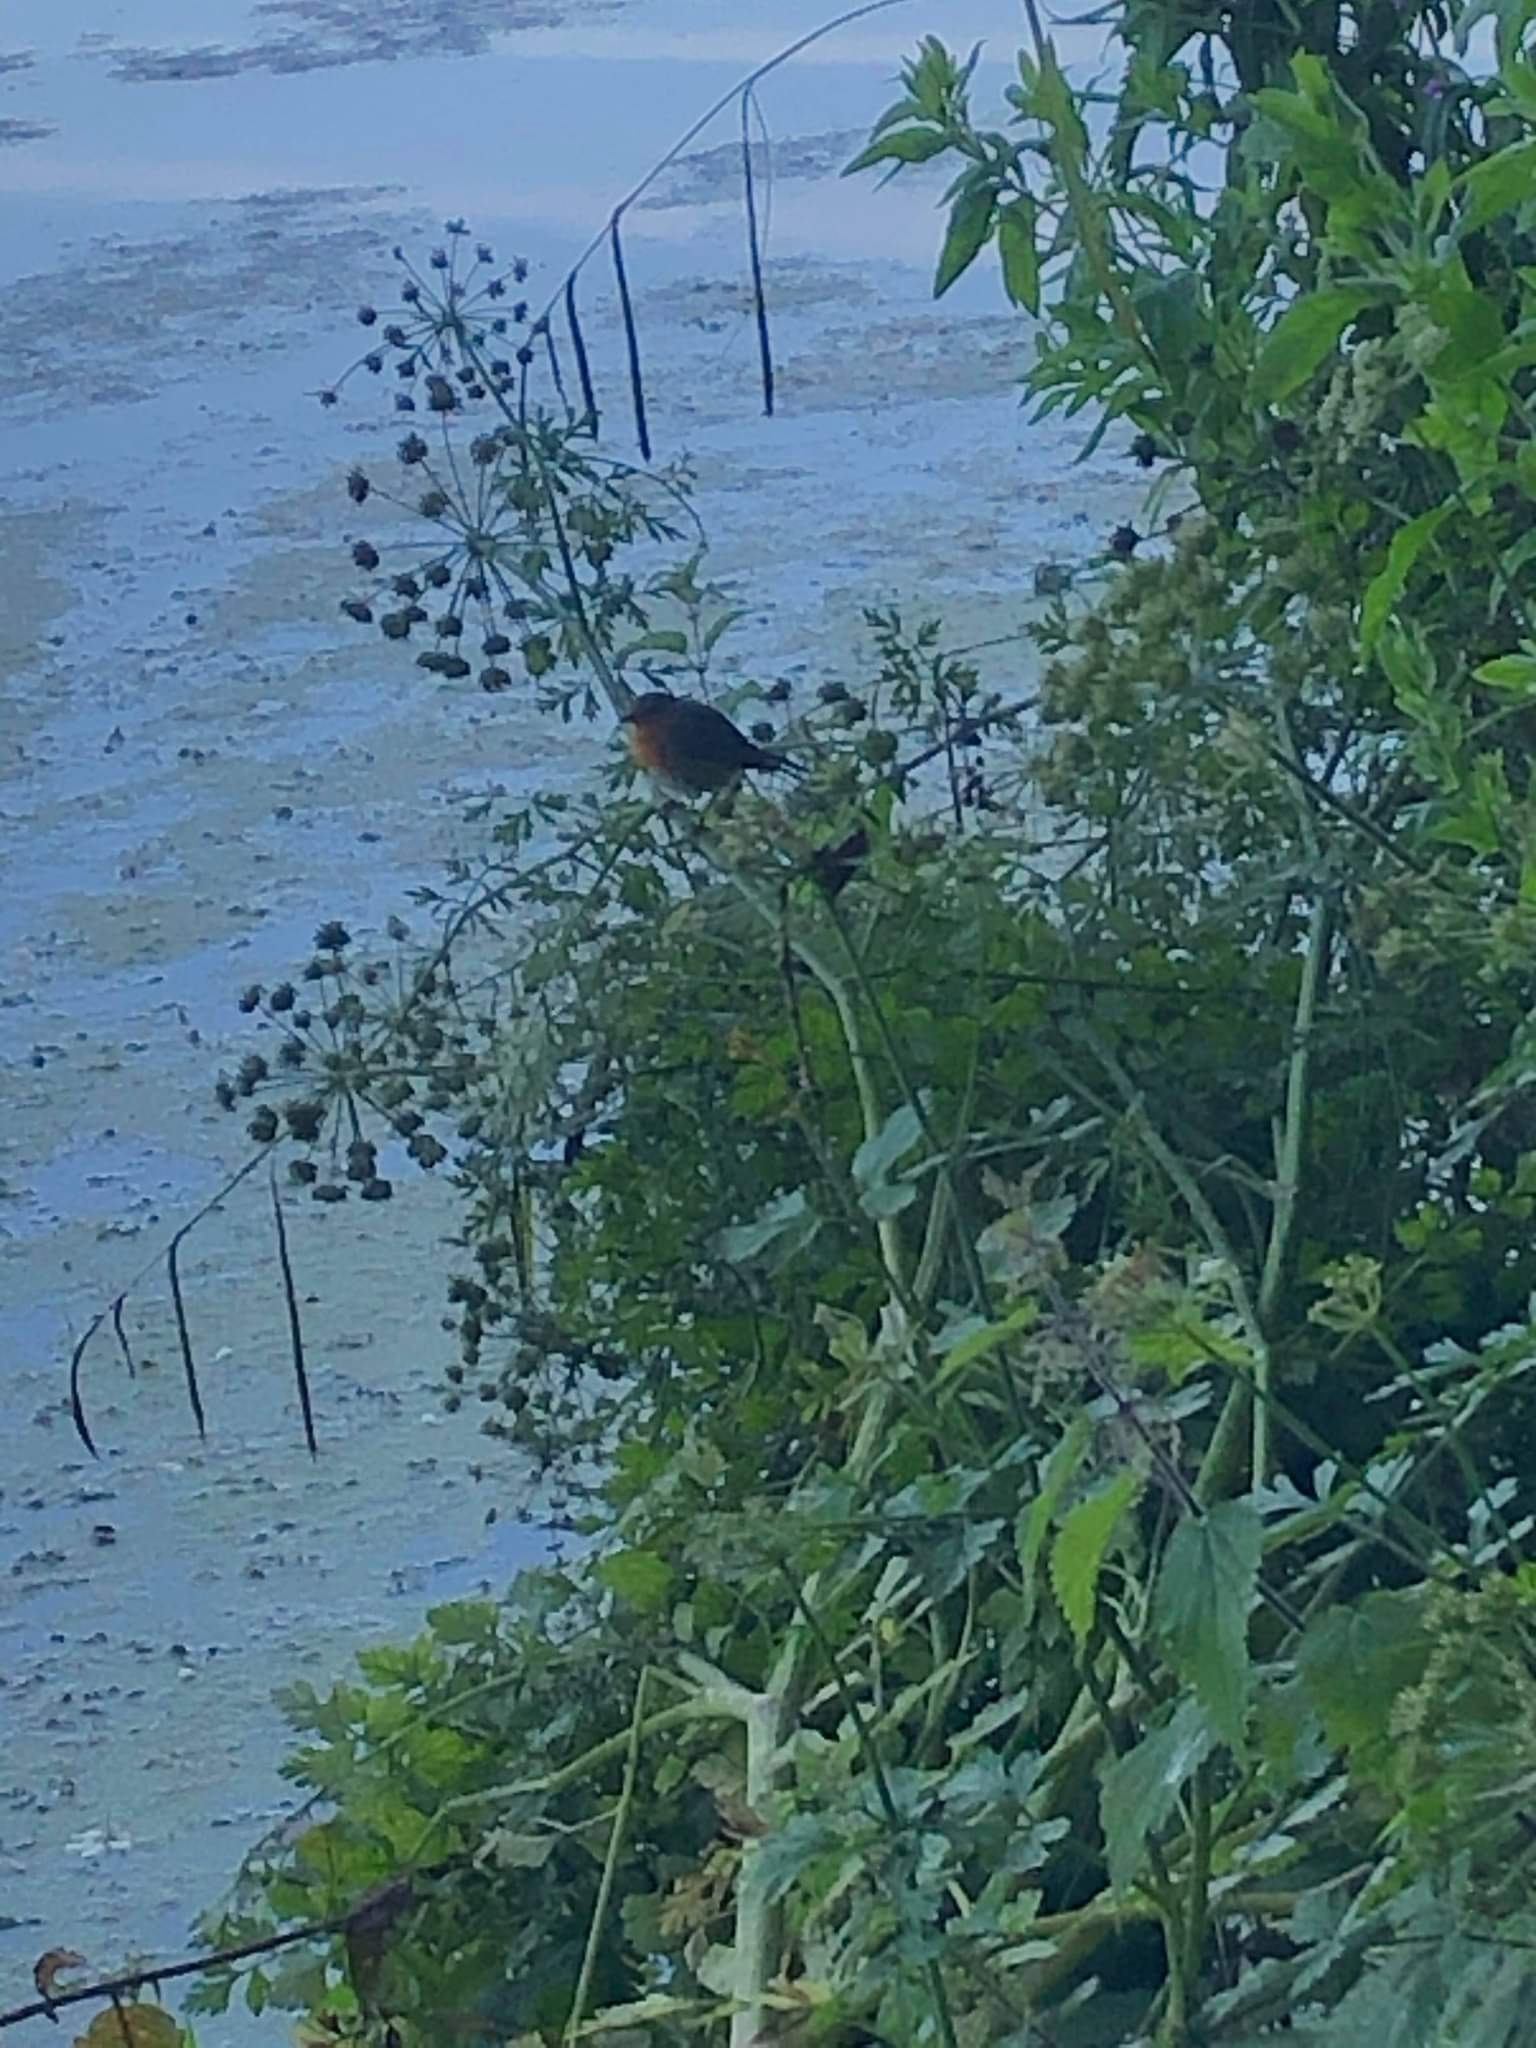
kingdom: Animalia
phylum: Chordata
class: Aves
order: Passeriformes
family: Muscicapidae
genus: Erithacus
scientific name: Erithacus rubecula
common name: European robin
